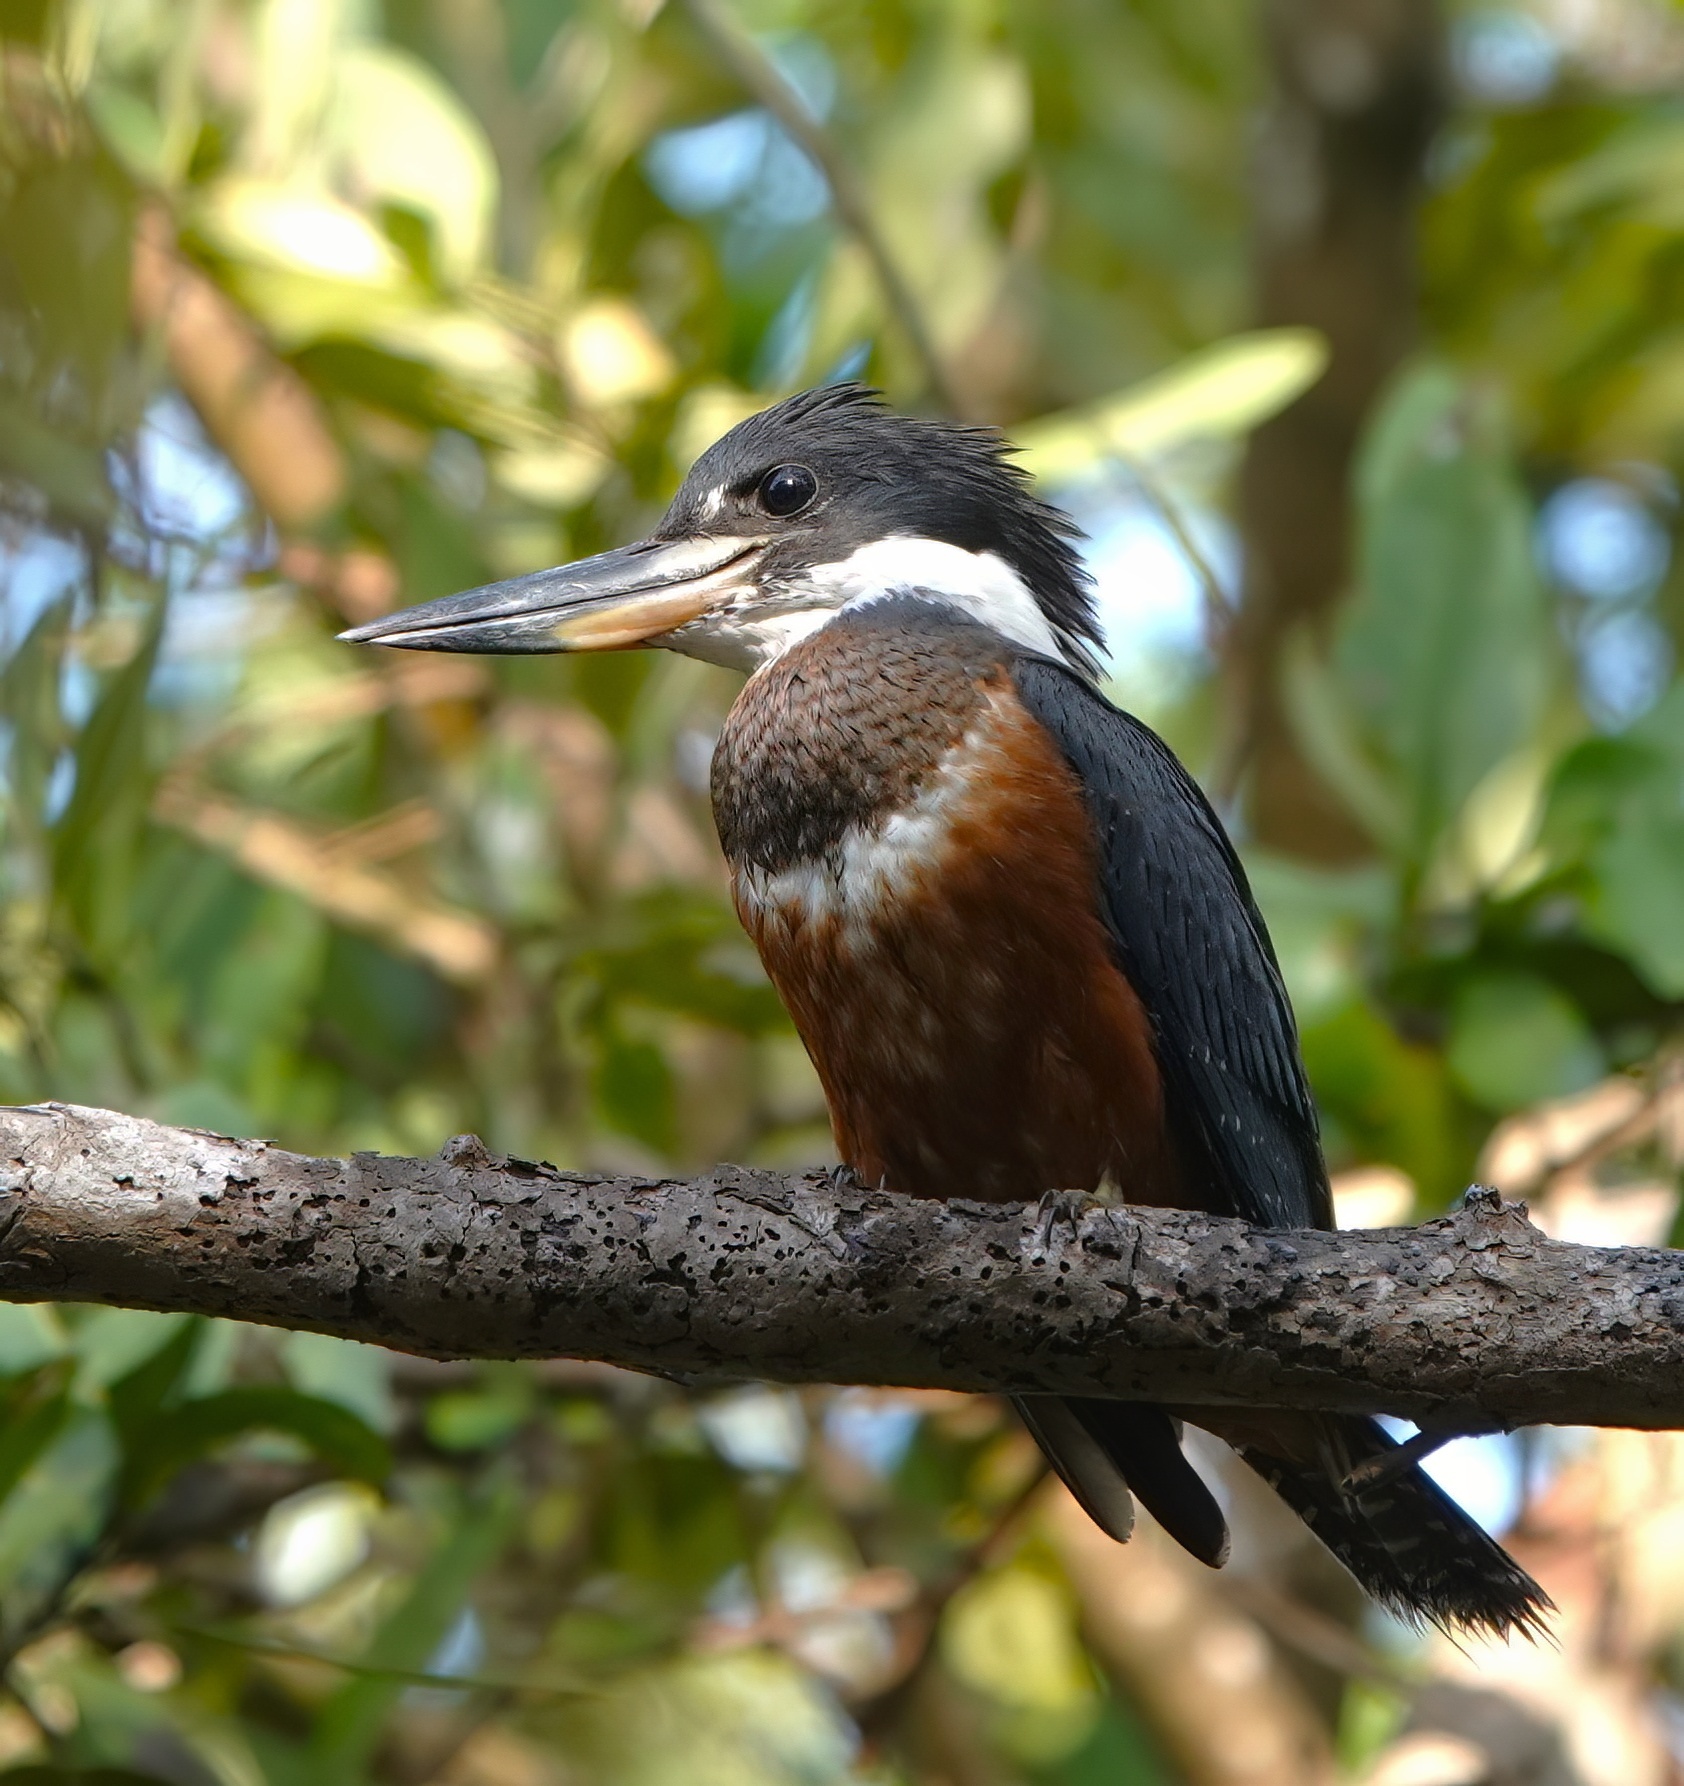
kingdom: Animalia
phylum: Chordata
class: Aves
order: Coraciiformes
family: Alcedinidae
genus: Megaceryle
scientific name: Megaceryle torquata
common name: Ringed kingfisher
